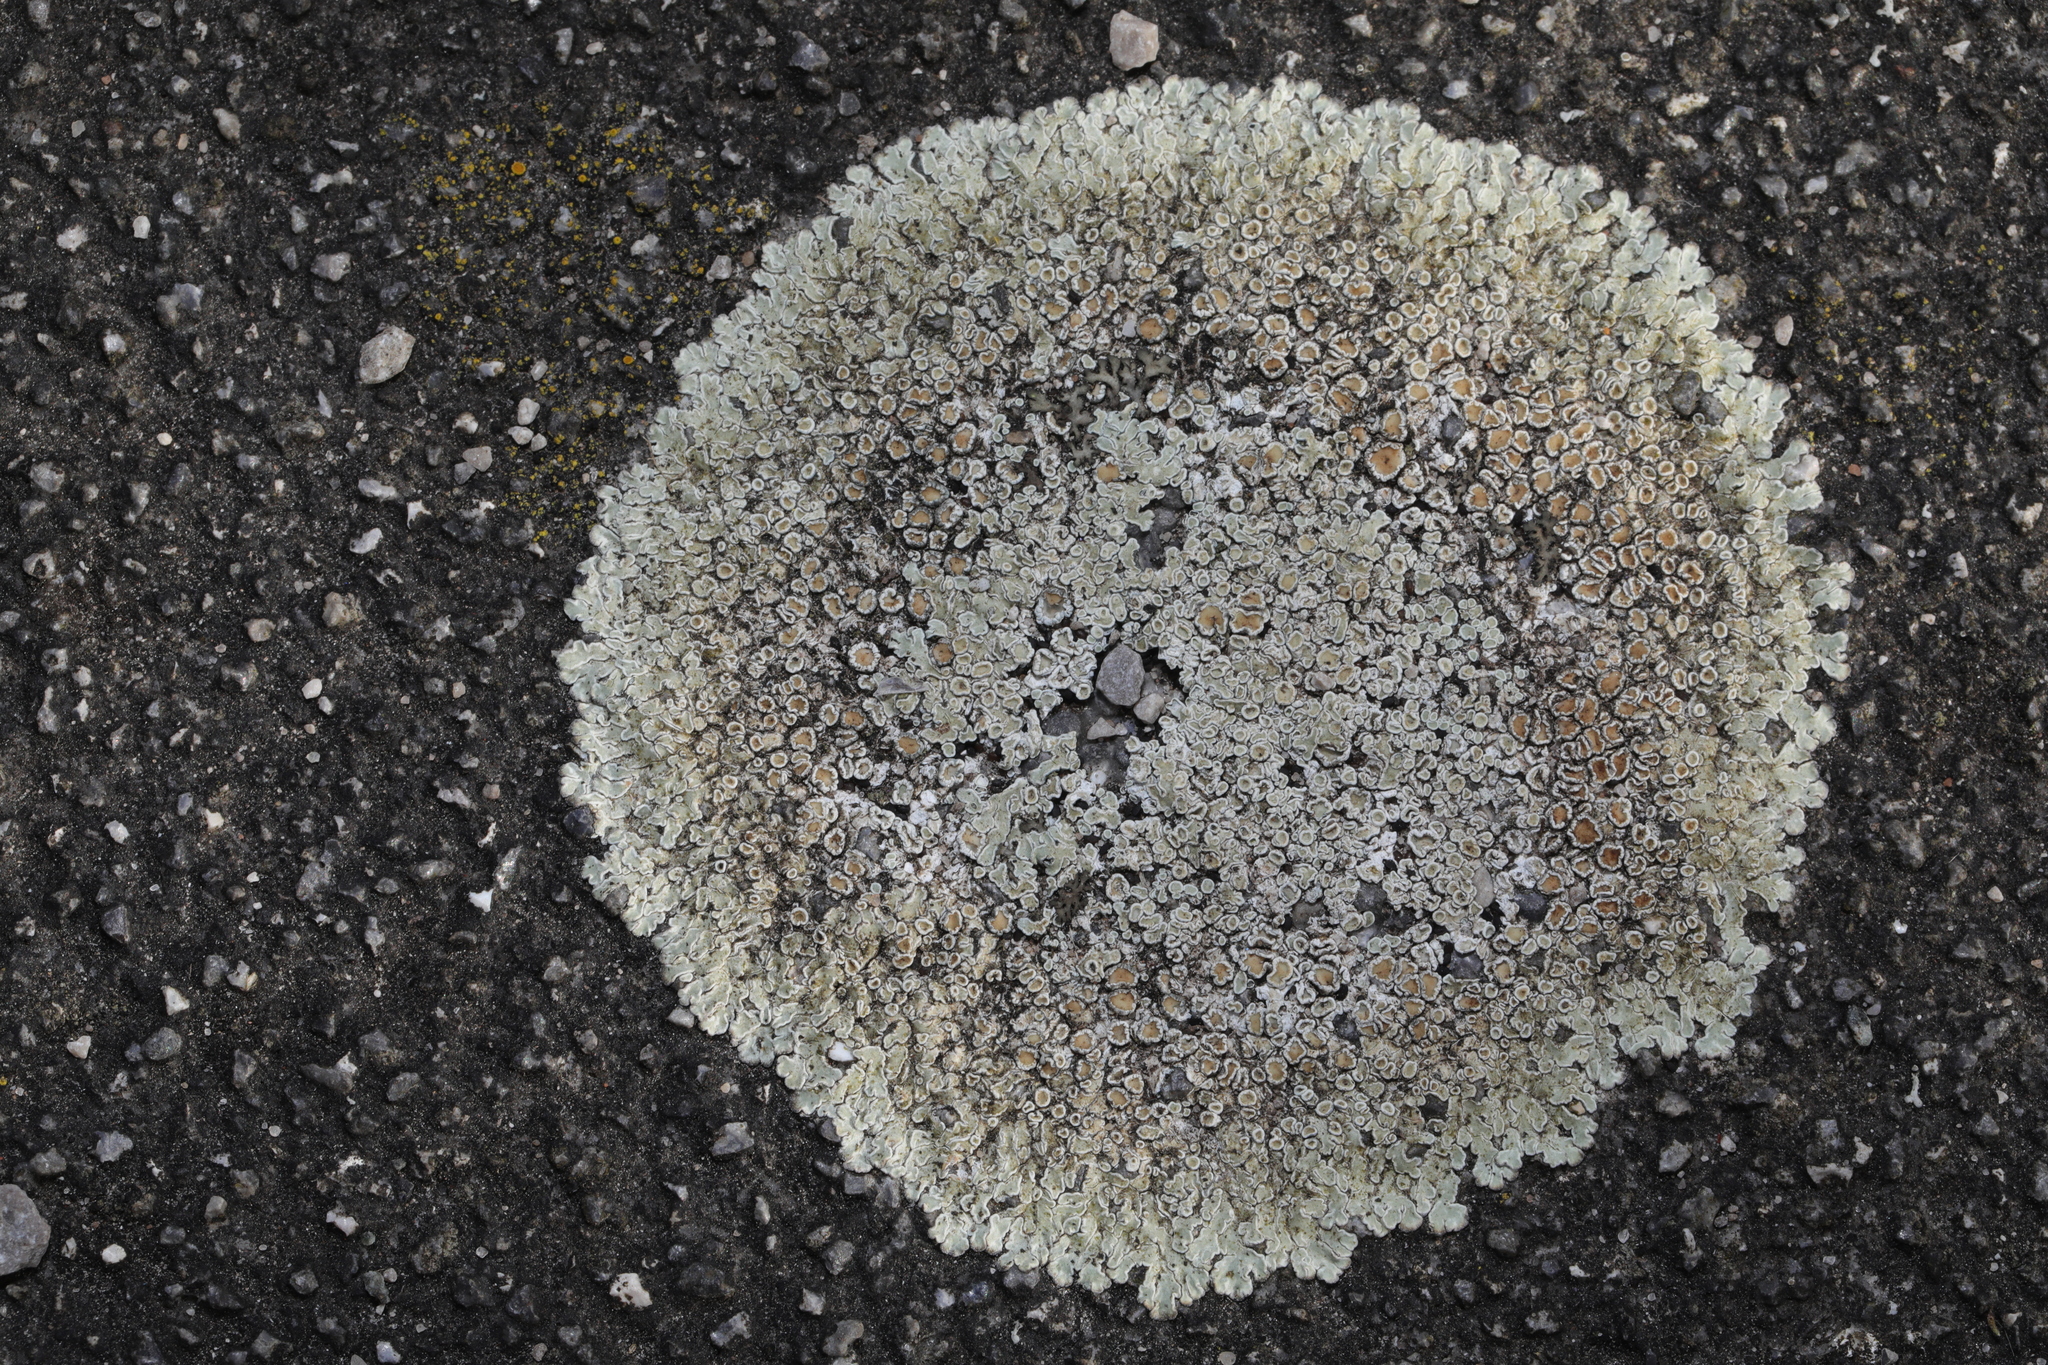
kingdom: Fungi
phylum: Ascomycota
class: Lecanoromycetes
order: Lecanorales
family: Lecanoraceae
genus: Protoparmeliopsis
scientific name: Protoparmeliopsis muralis
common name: Stonewall rim lichen
